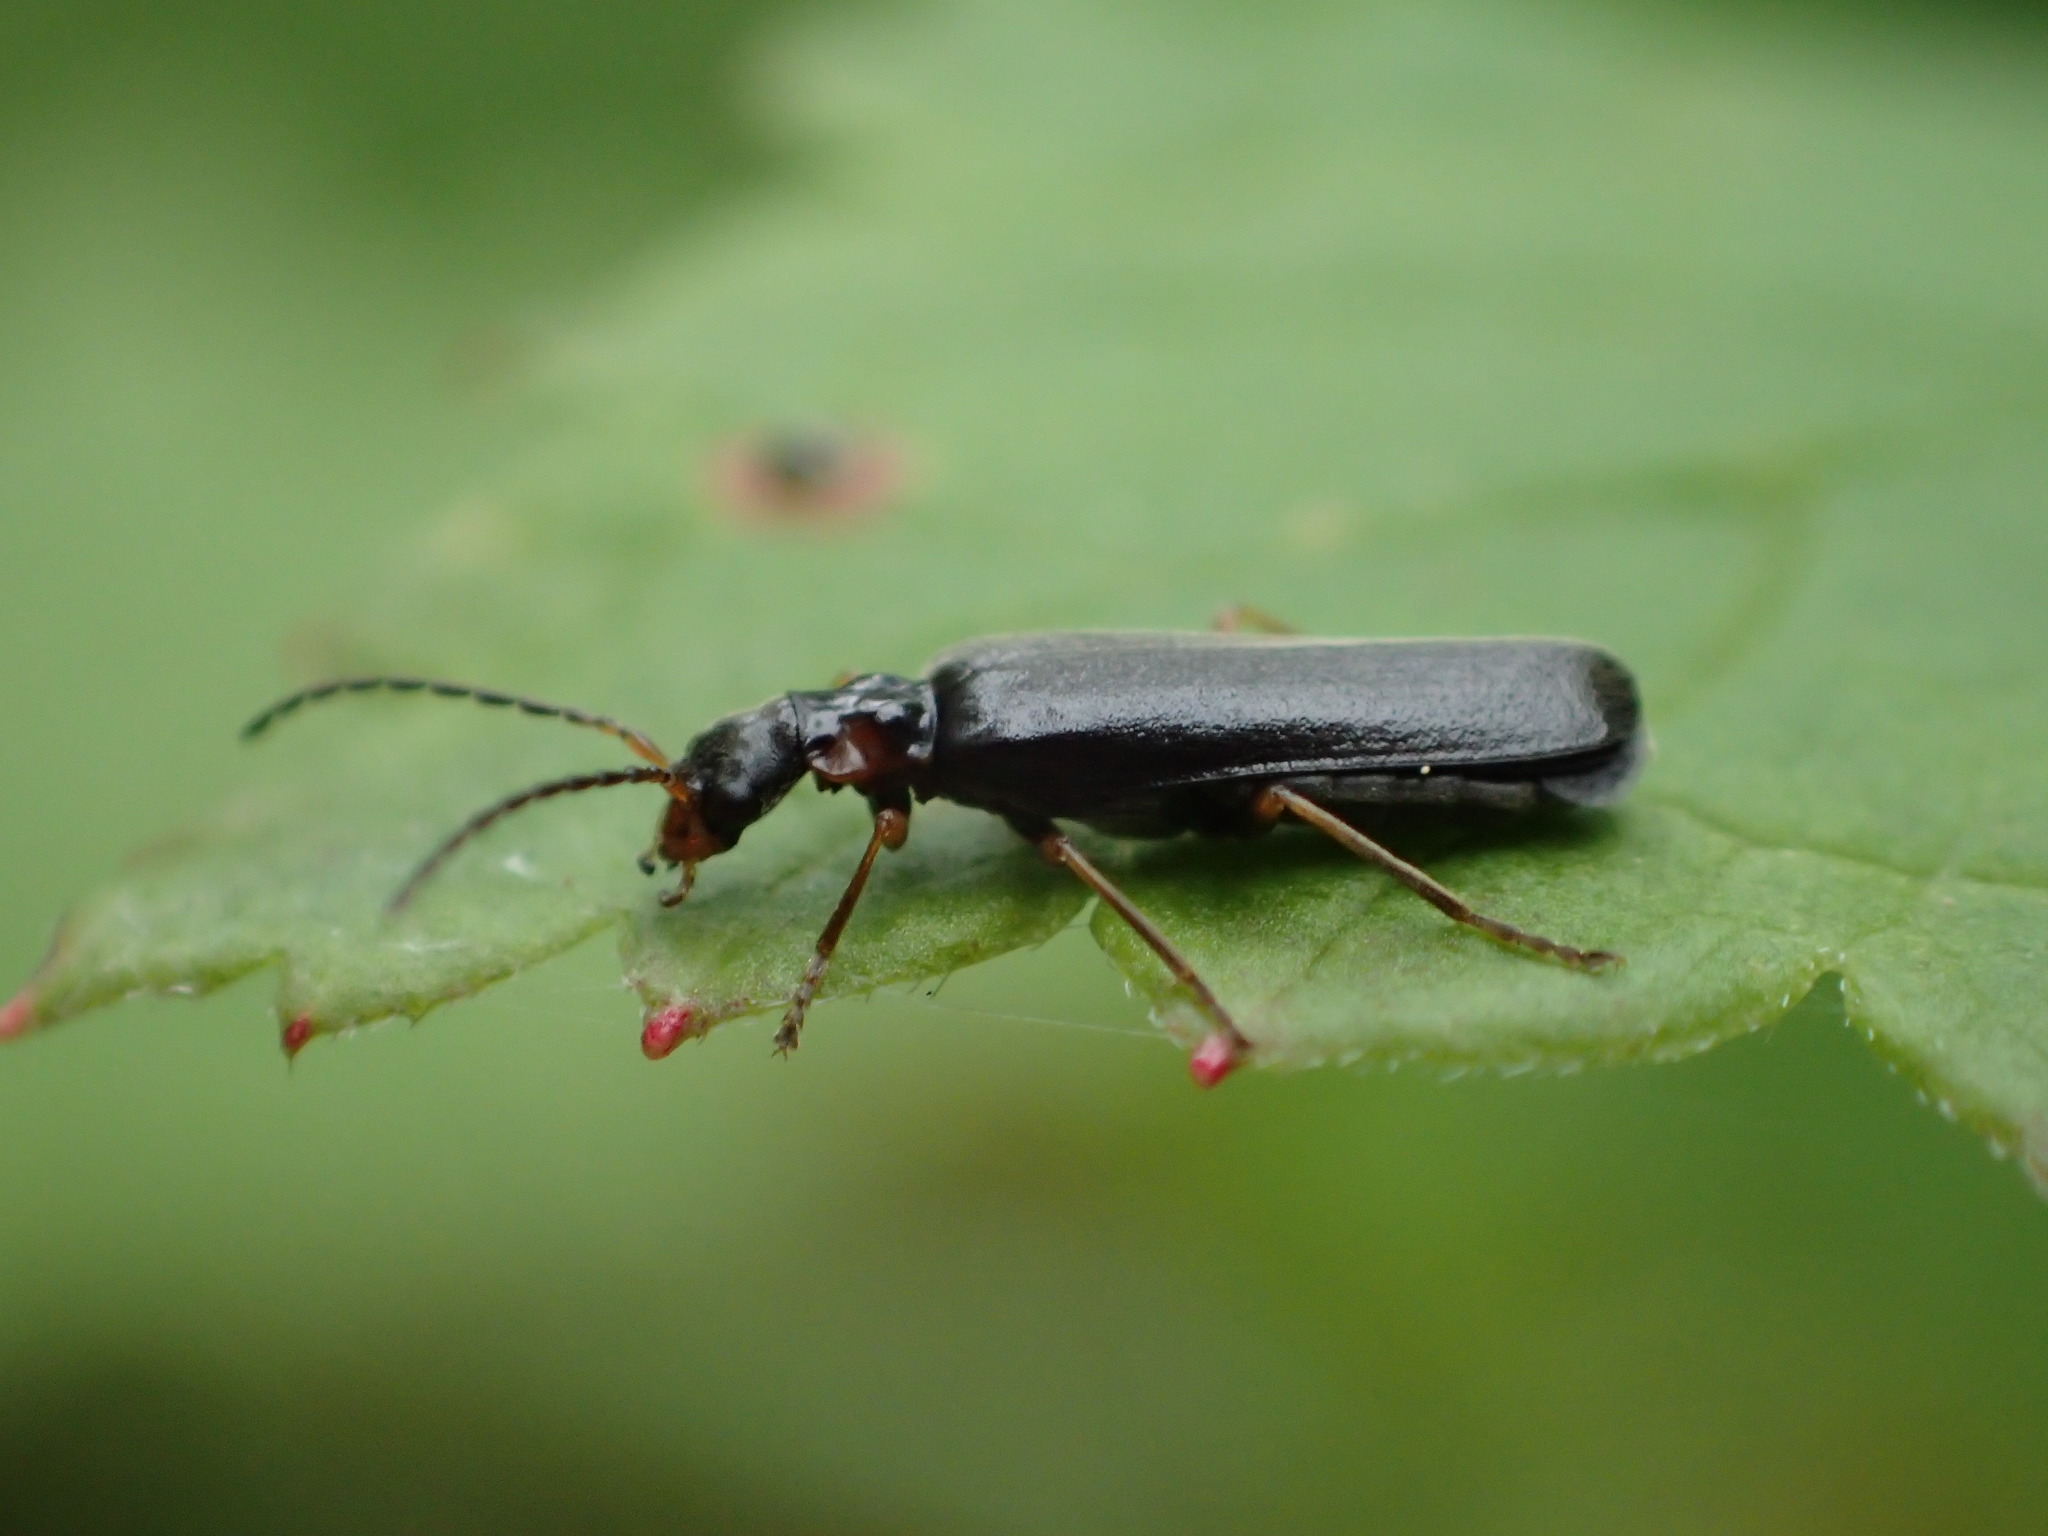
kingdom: Animalia
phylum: Arthropoda
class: Insecta
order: Coleoptera
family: Cantharidae
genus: Dichelotarsus
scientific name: Dichelotarsus laevicollis
